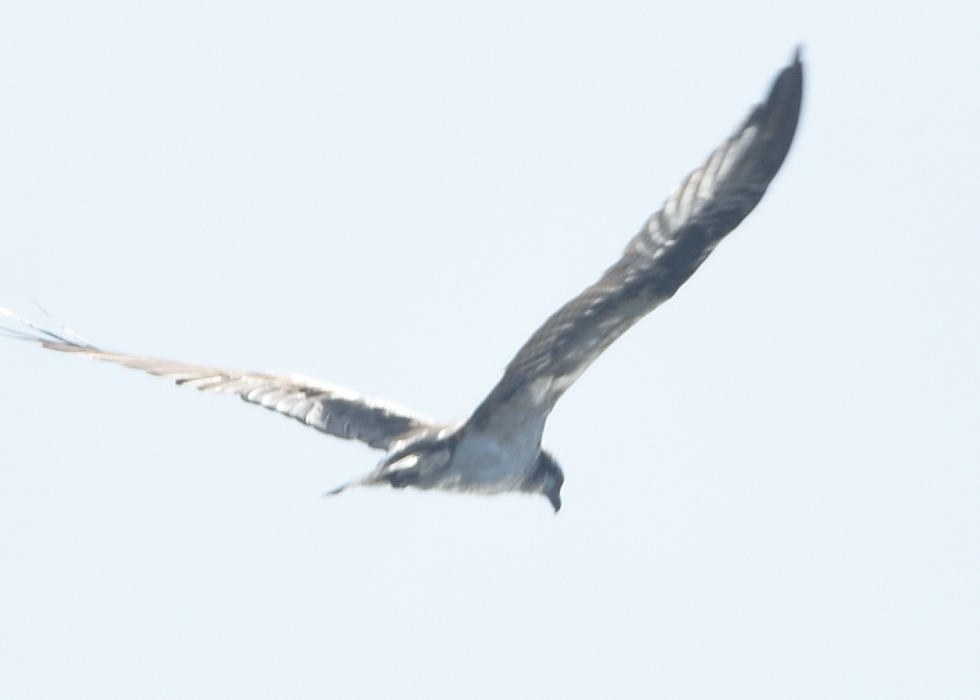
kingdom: Animalia
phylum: Chordata
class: Aves
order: Accipitriformes
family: Pandionidae
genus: Pandion
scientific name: Pandion haliaetus
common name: Osprey
